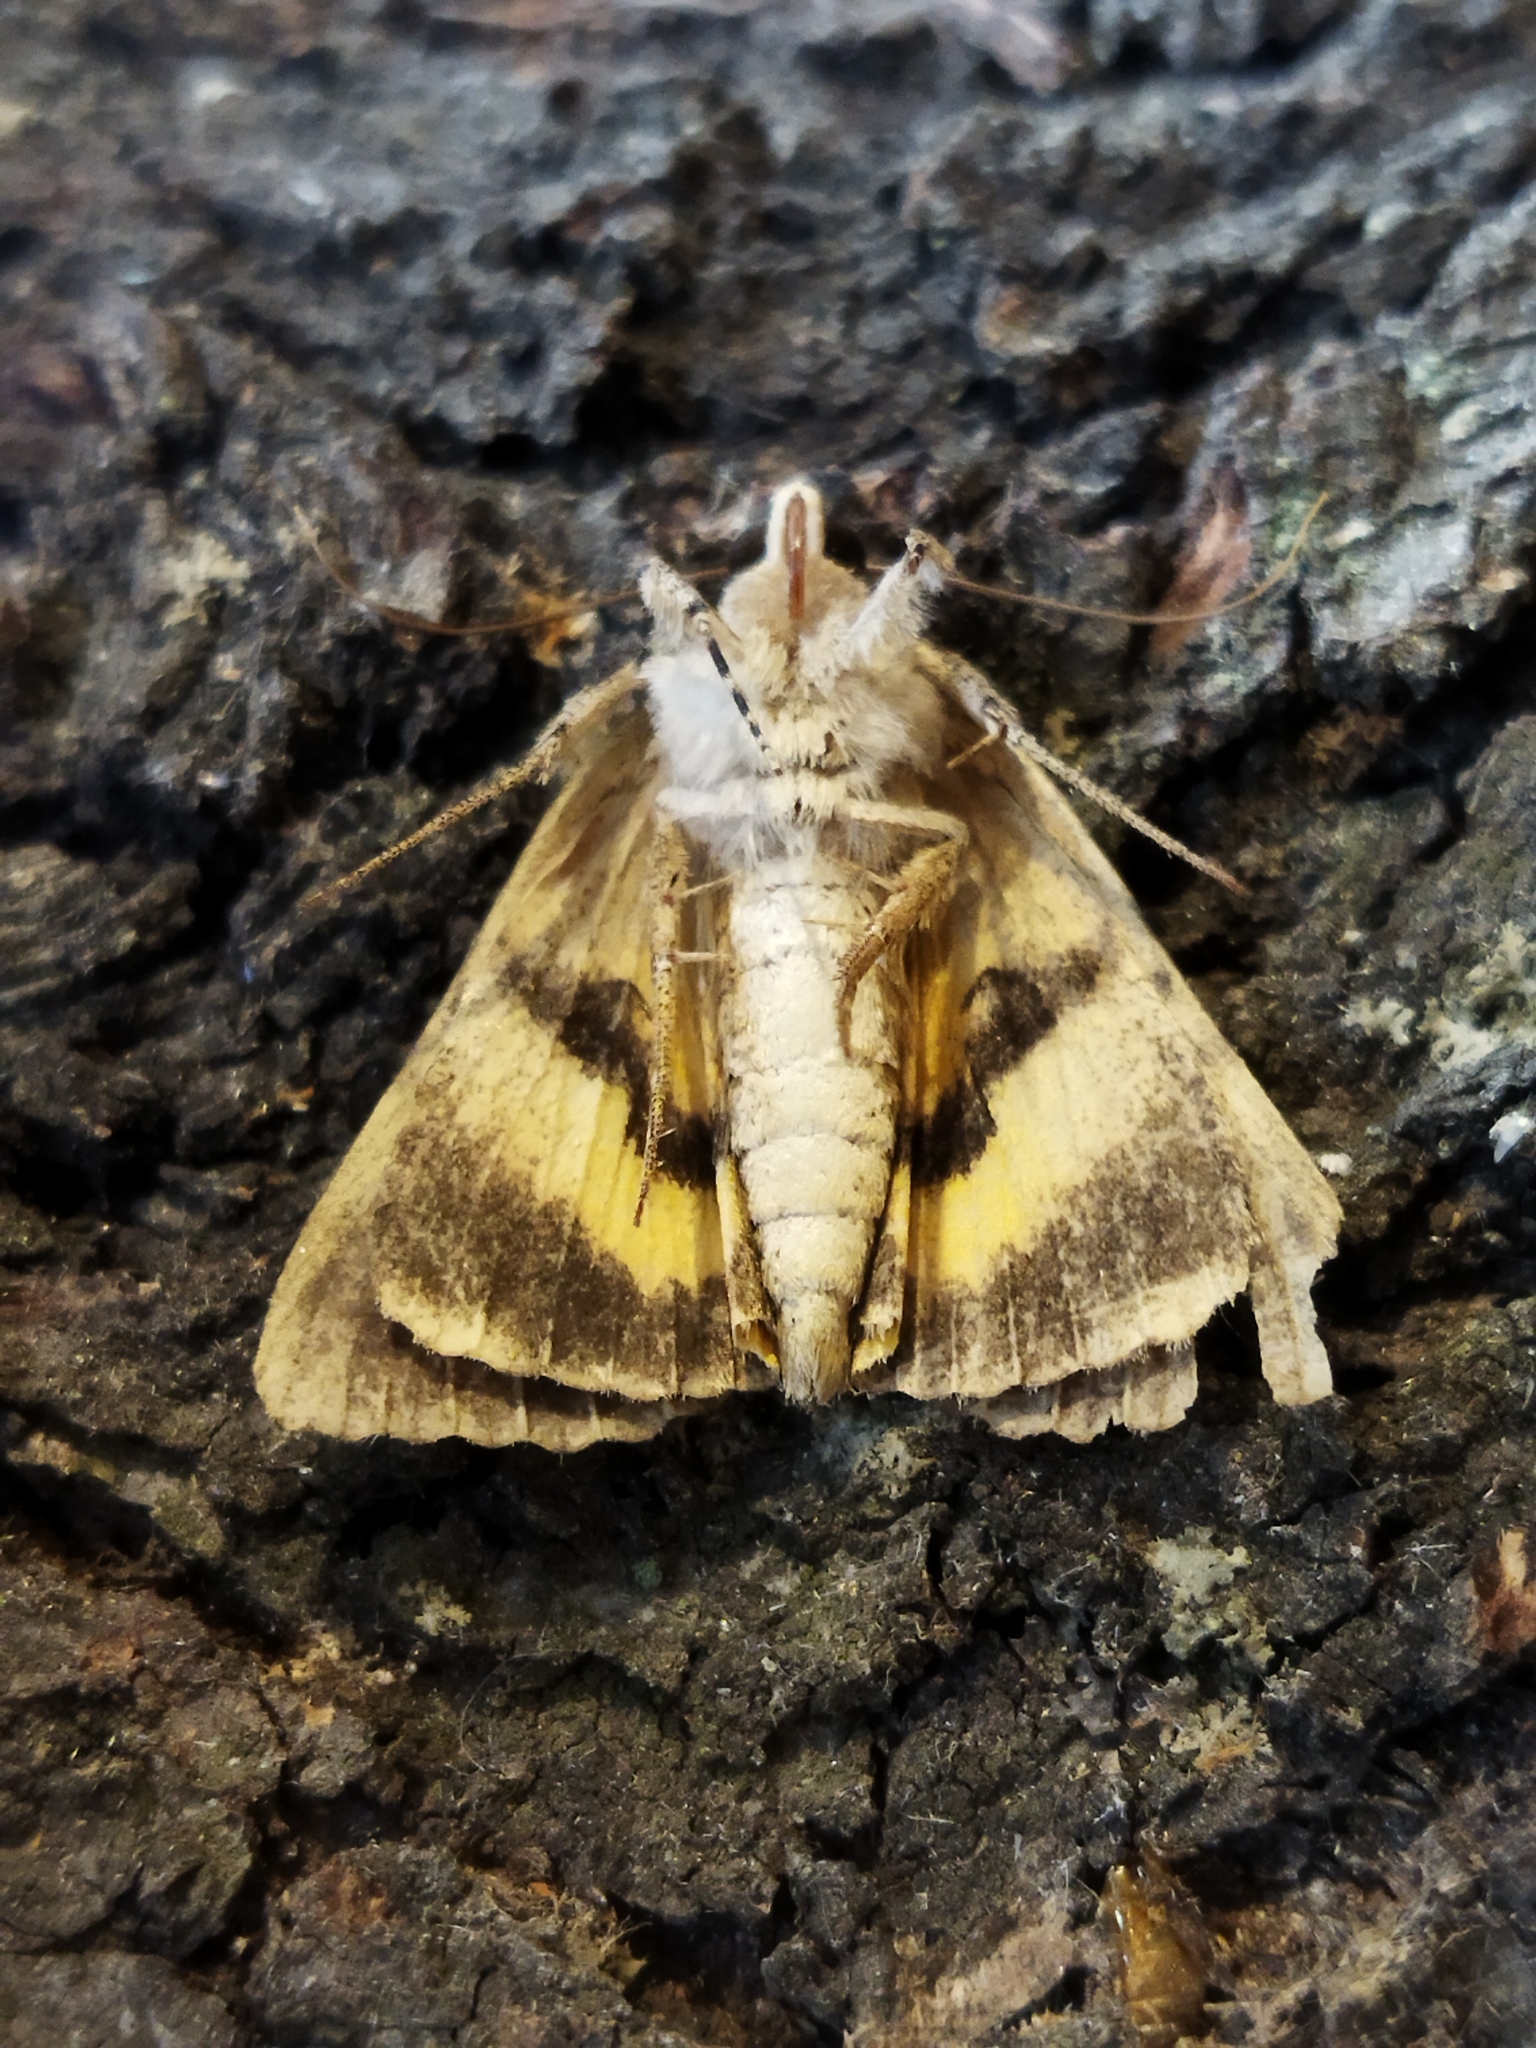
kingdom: Animalia
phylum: Arthropoda
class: Insecta
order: Lepidoptera
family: Erebidae
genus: Catocala
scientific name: Catocala hymenaea
